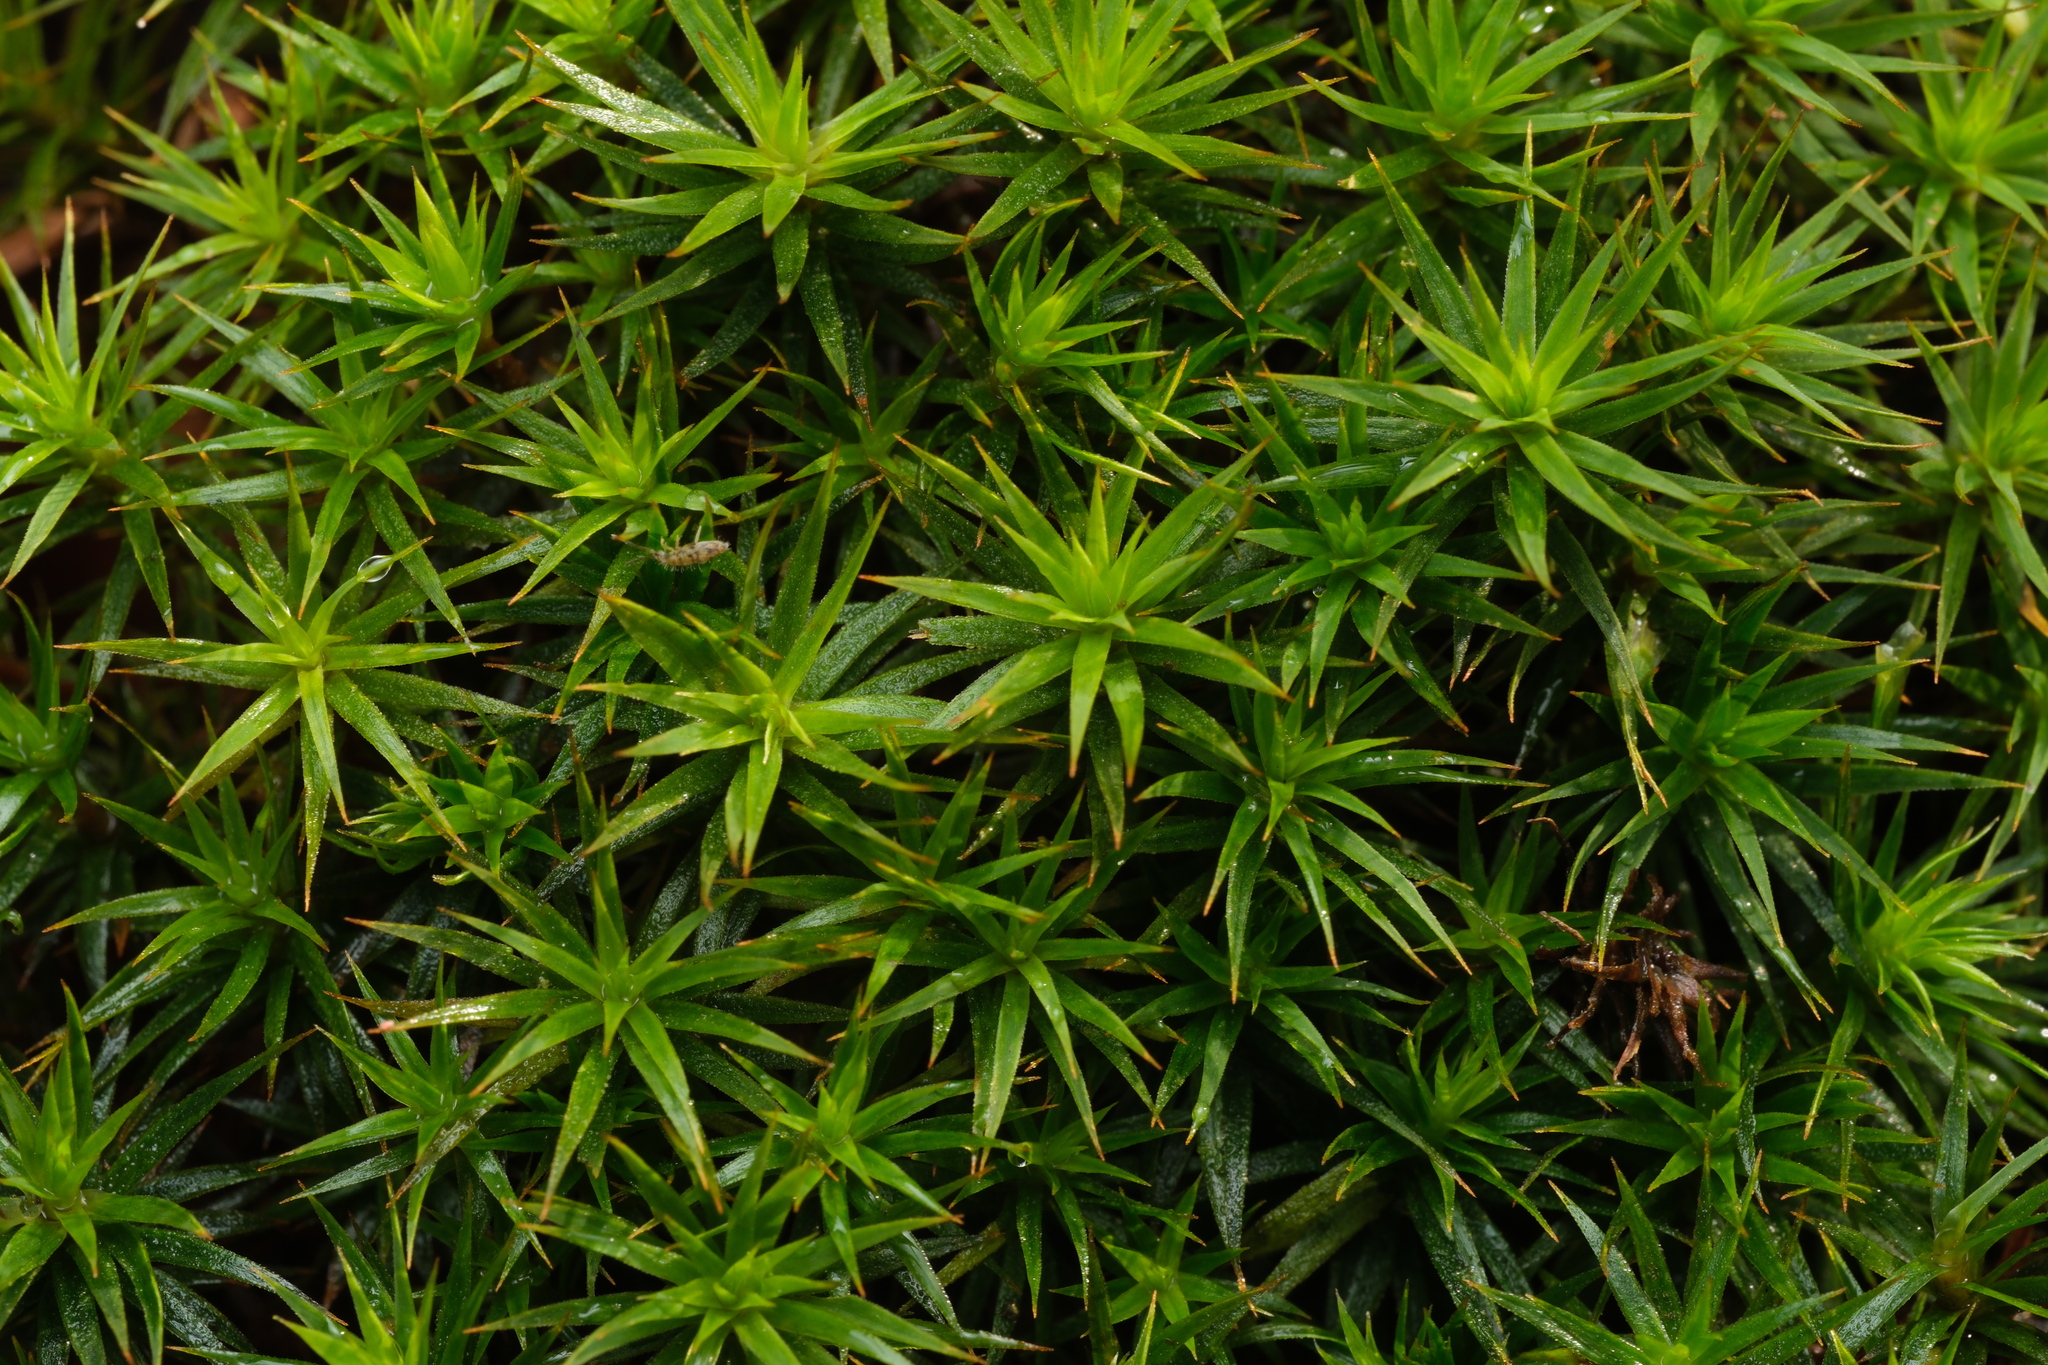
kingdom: Plantae
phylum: Bryophyta
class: Polytrichopsida
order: Polytrichales
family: Polytrichaceae
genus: Polytrichum
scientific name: Polytrichum formosum
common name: Bank haircap moss
